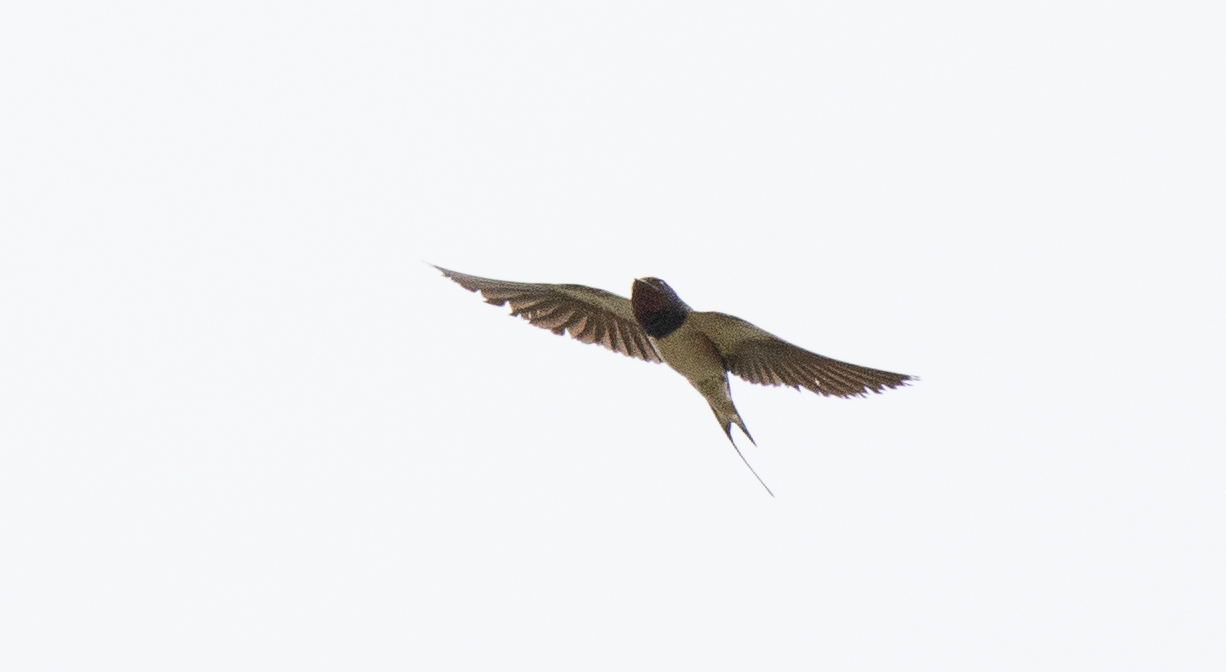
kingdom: Animalia
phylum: Chordata
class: Aves
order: Passeriformes
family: Hirundinidae
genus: Hirundo
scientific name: Hirundo rustica
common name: Barn swallow
